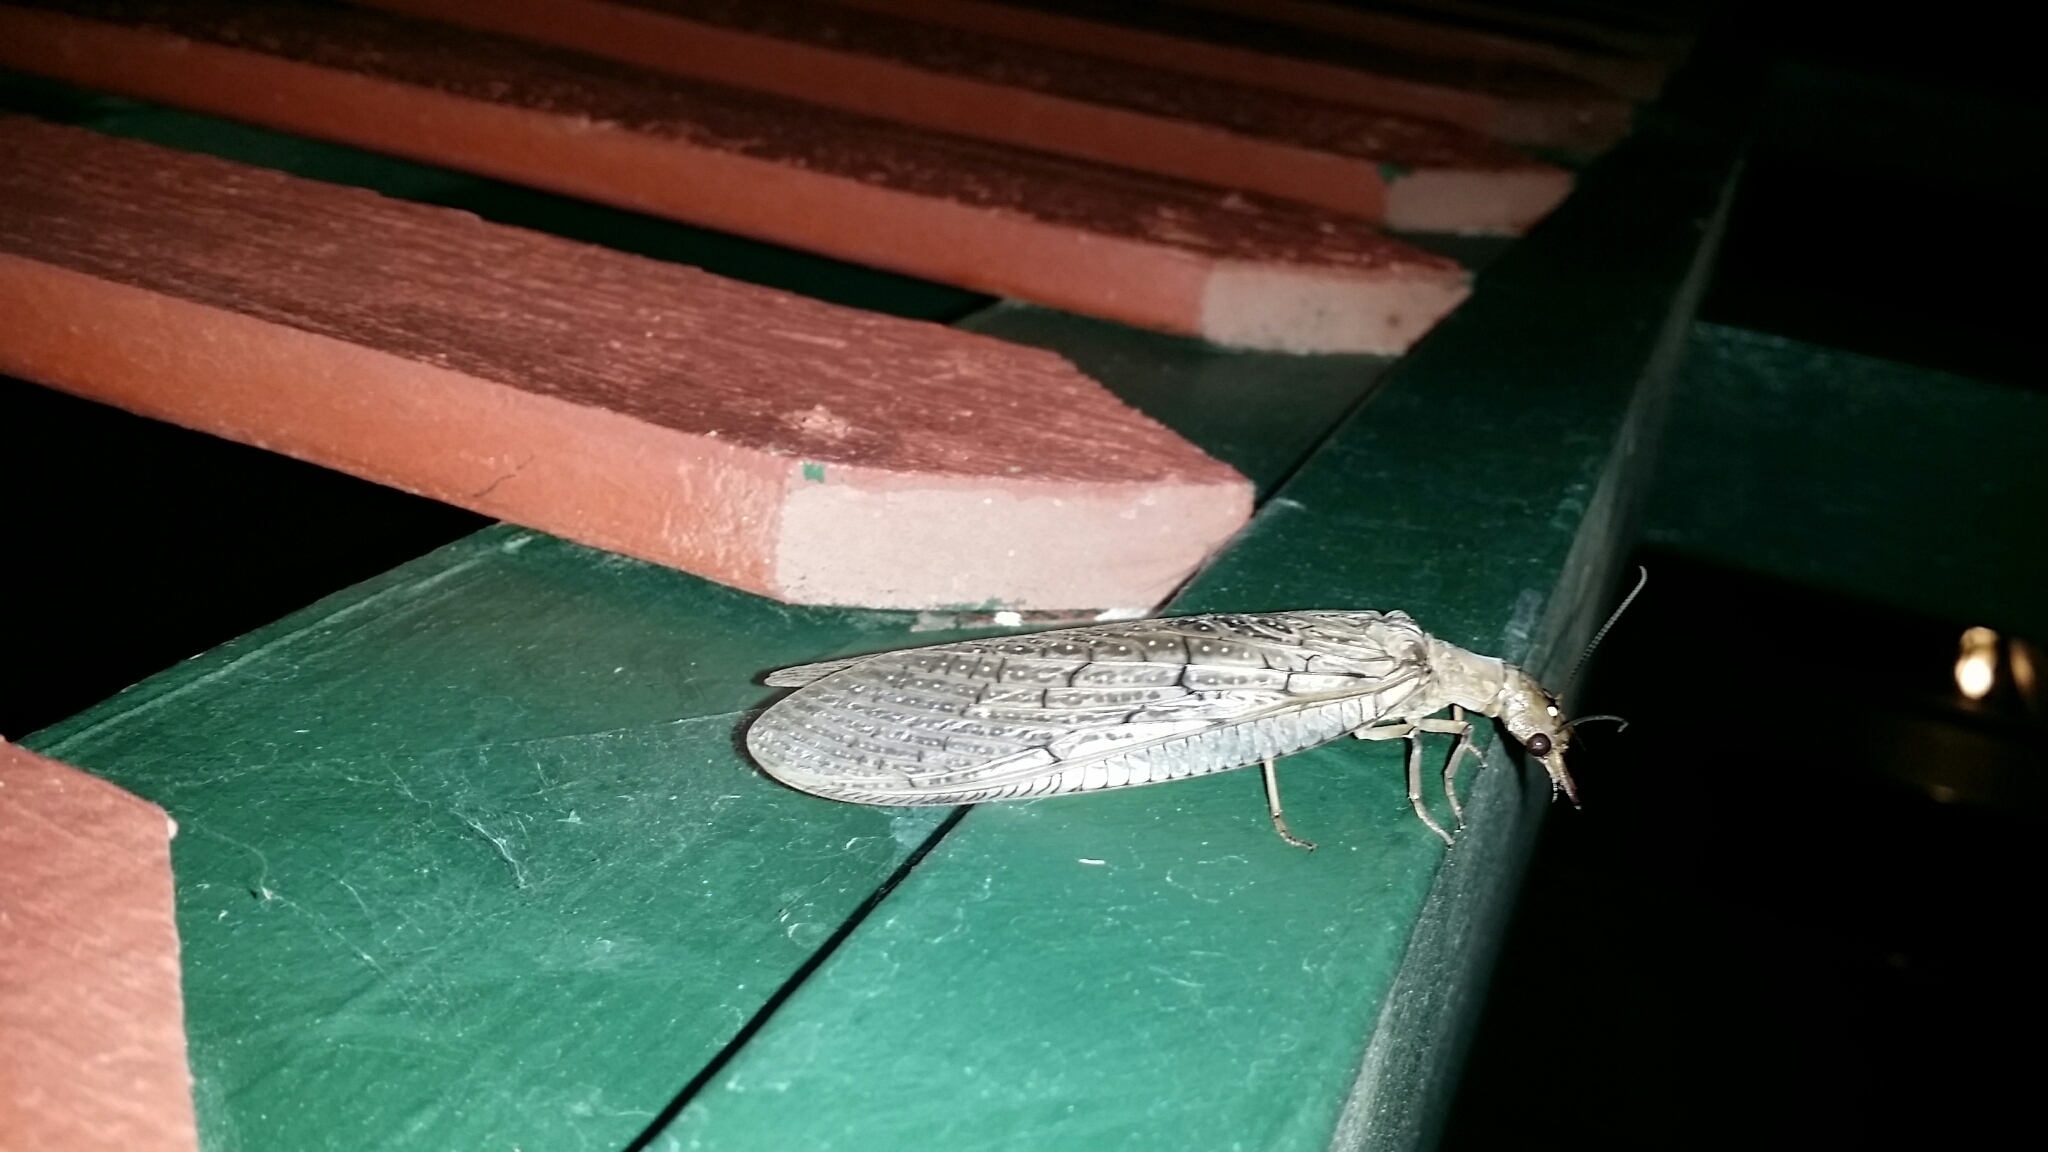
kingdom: Animalia
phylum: Arthropoda
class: Insecta
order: Megaloptera
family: Corydalidae
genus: Corydalus
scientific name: Corydalus texanus
